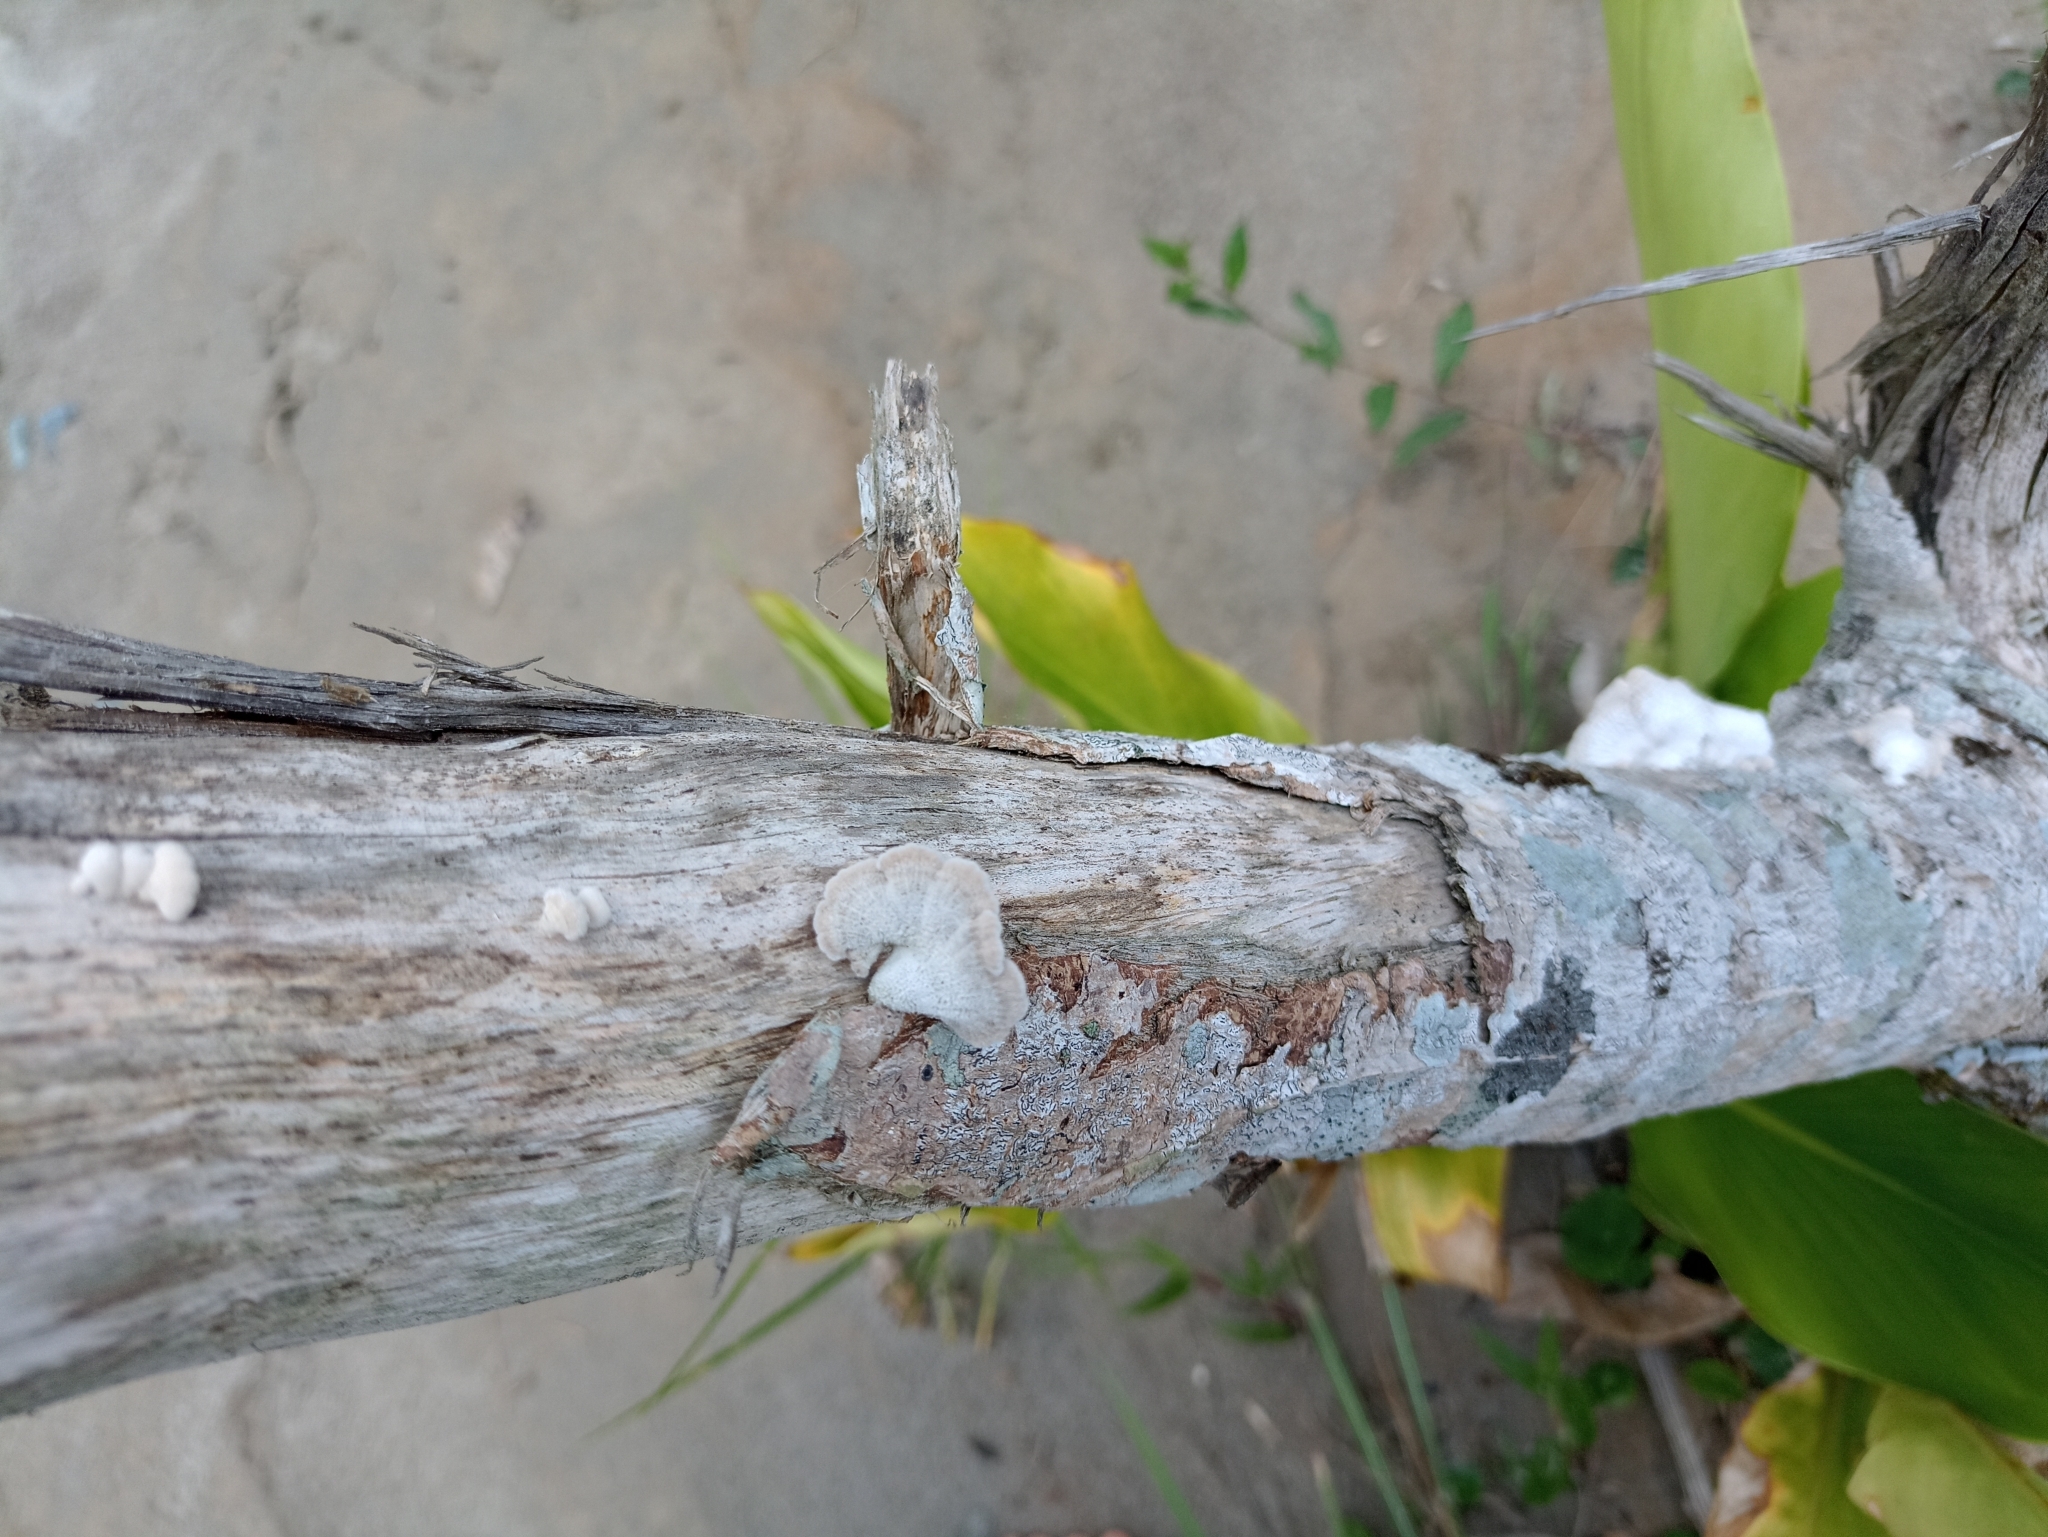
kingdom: Fungi
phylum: Basidiomycota
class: Agaricomycetes
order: Agaricales
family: Schizophyllaceae
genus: Schizophyllum
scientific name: Schizophyllum commune
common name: Common porecrust
